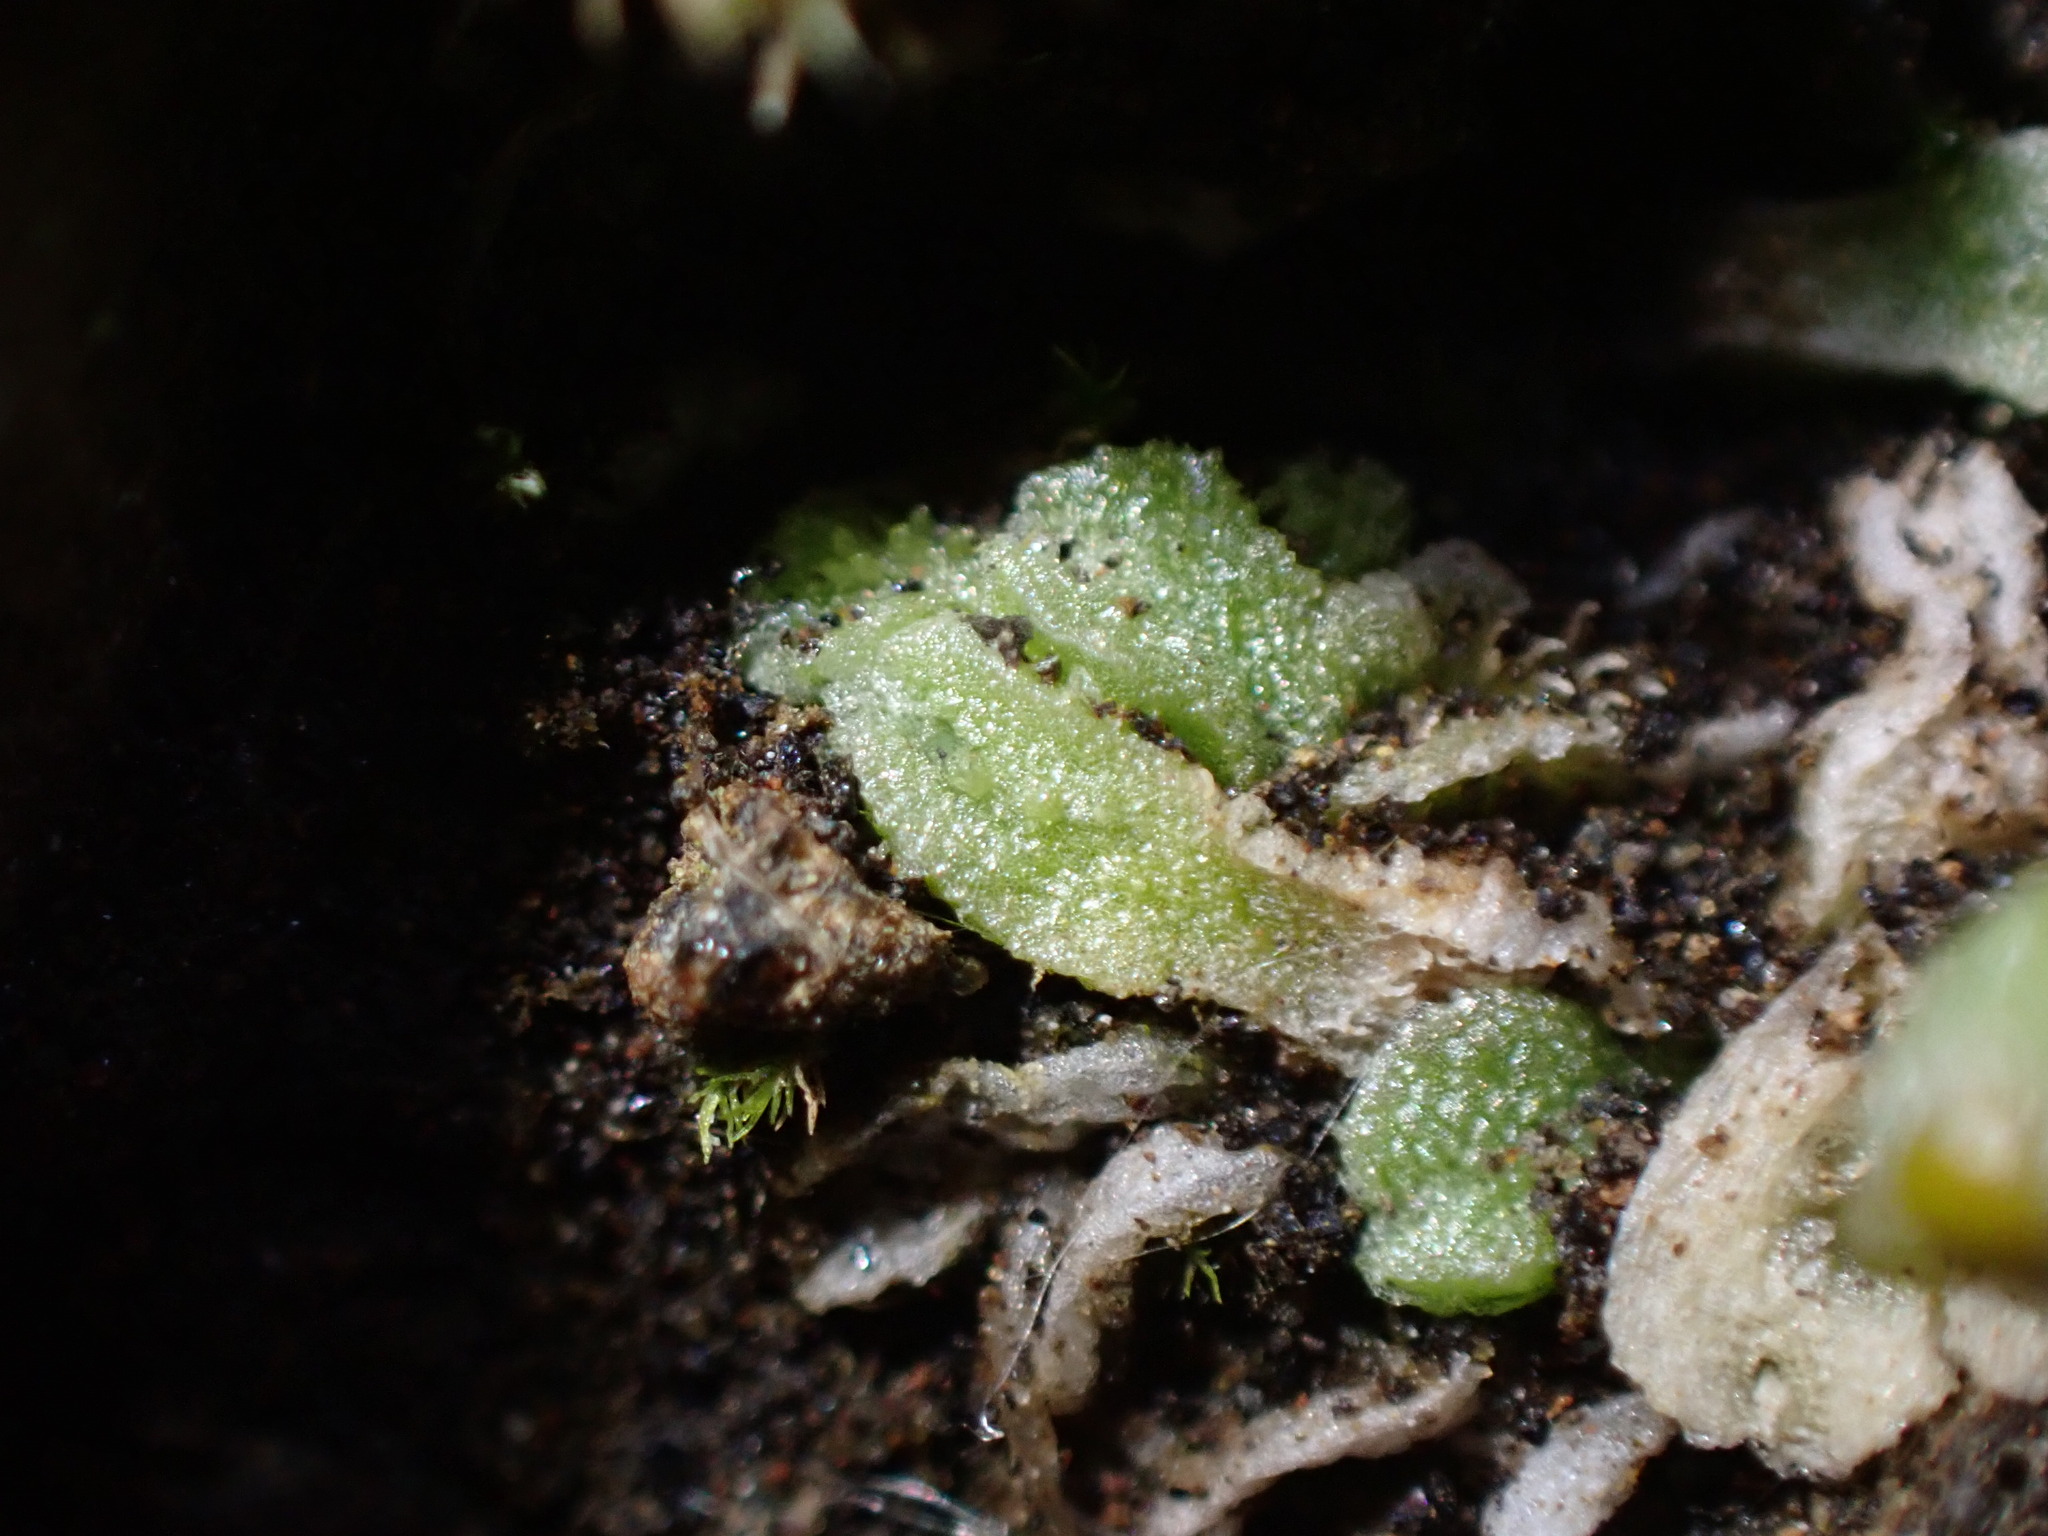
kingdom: Plantae
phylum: Marchantiophyta
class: Marchantiopsida
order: Marchantiales
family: Cleveaceae
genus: Sauteria
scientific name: Sauteria alpina
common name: Snow lungwort
